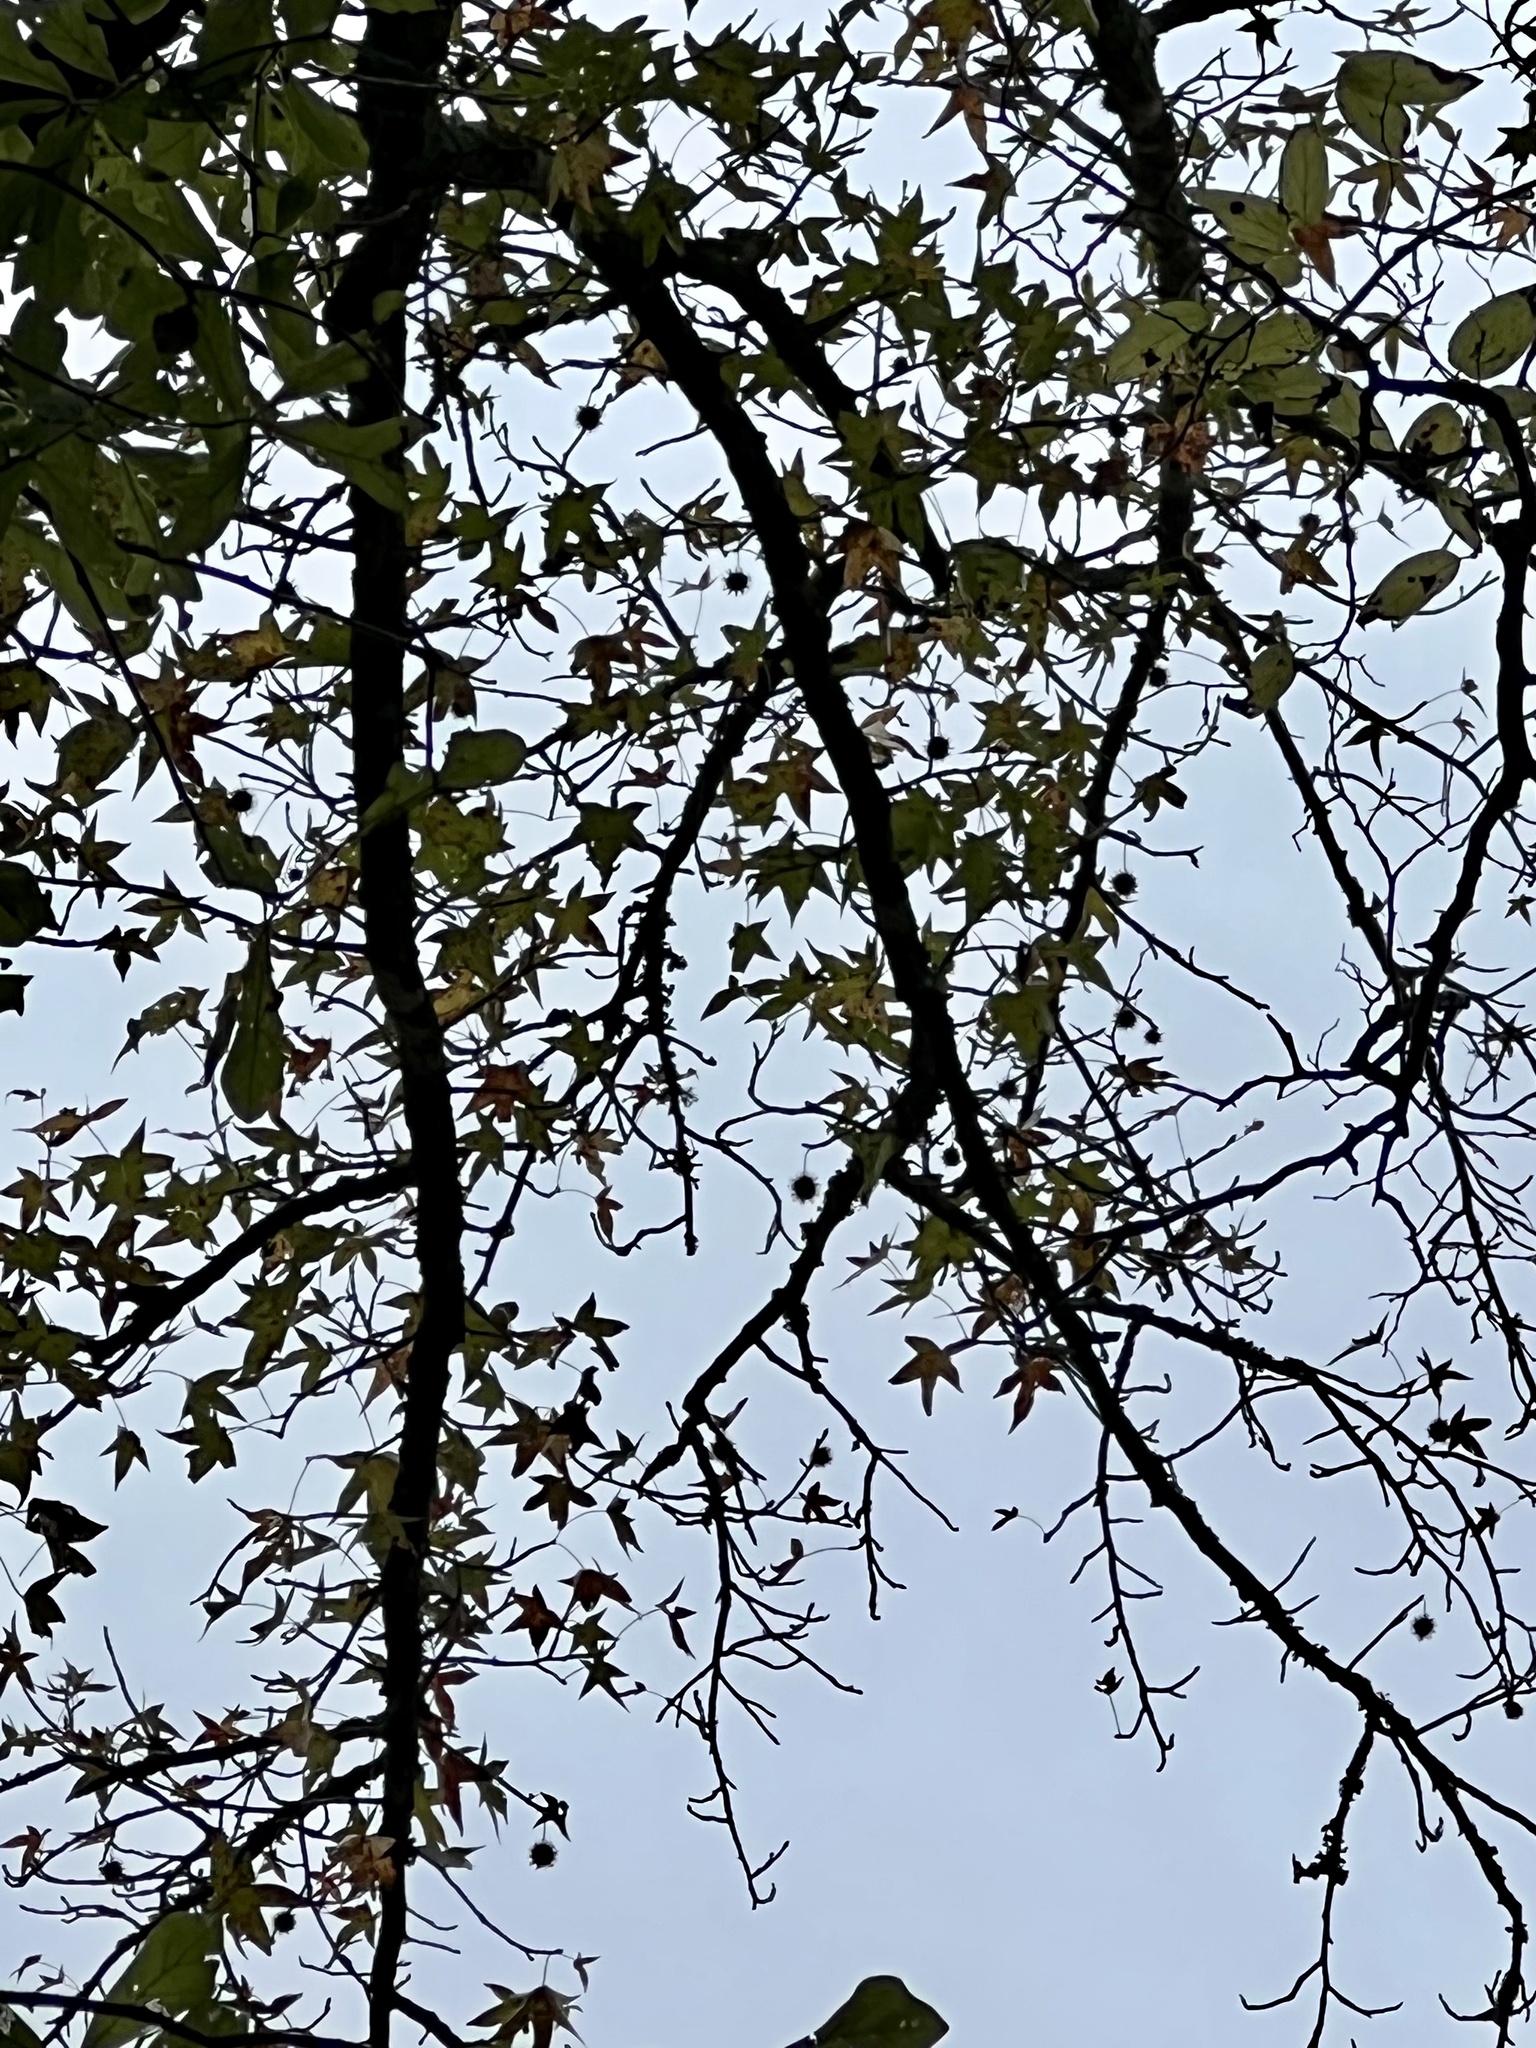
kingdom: Plantae
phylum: Tracheophyta
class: Magnoliopsida
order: Saxifragales
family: Altingiaceae
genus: Liquidambar
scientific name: Liquidambar styraciflua
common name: Sweet gum
